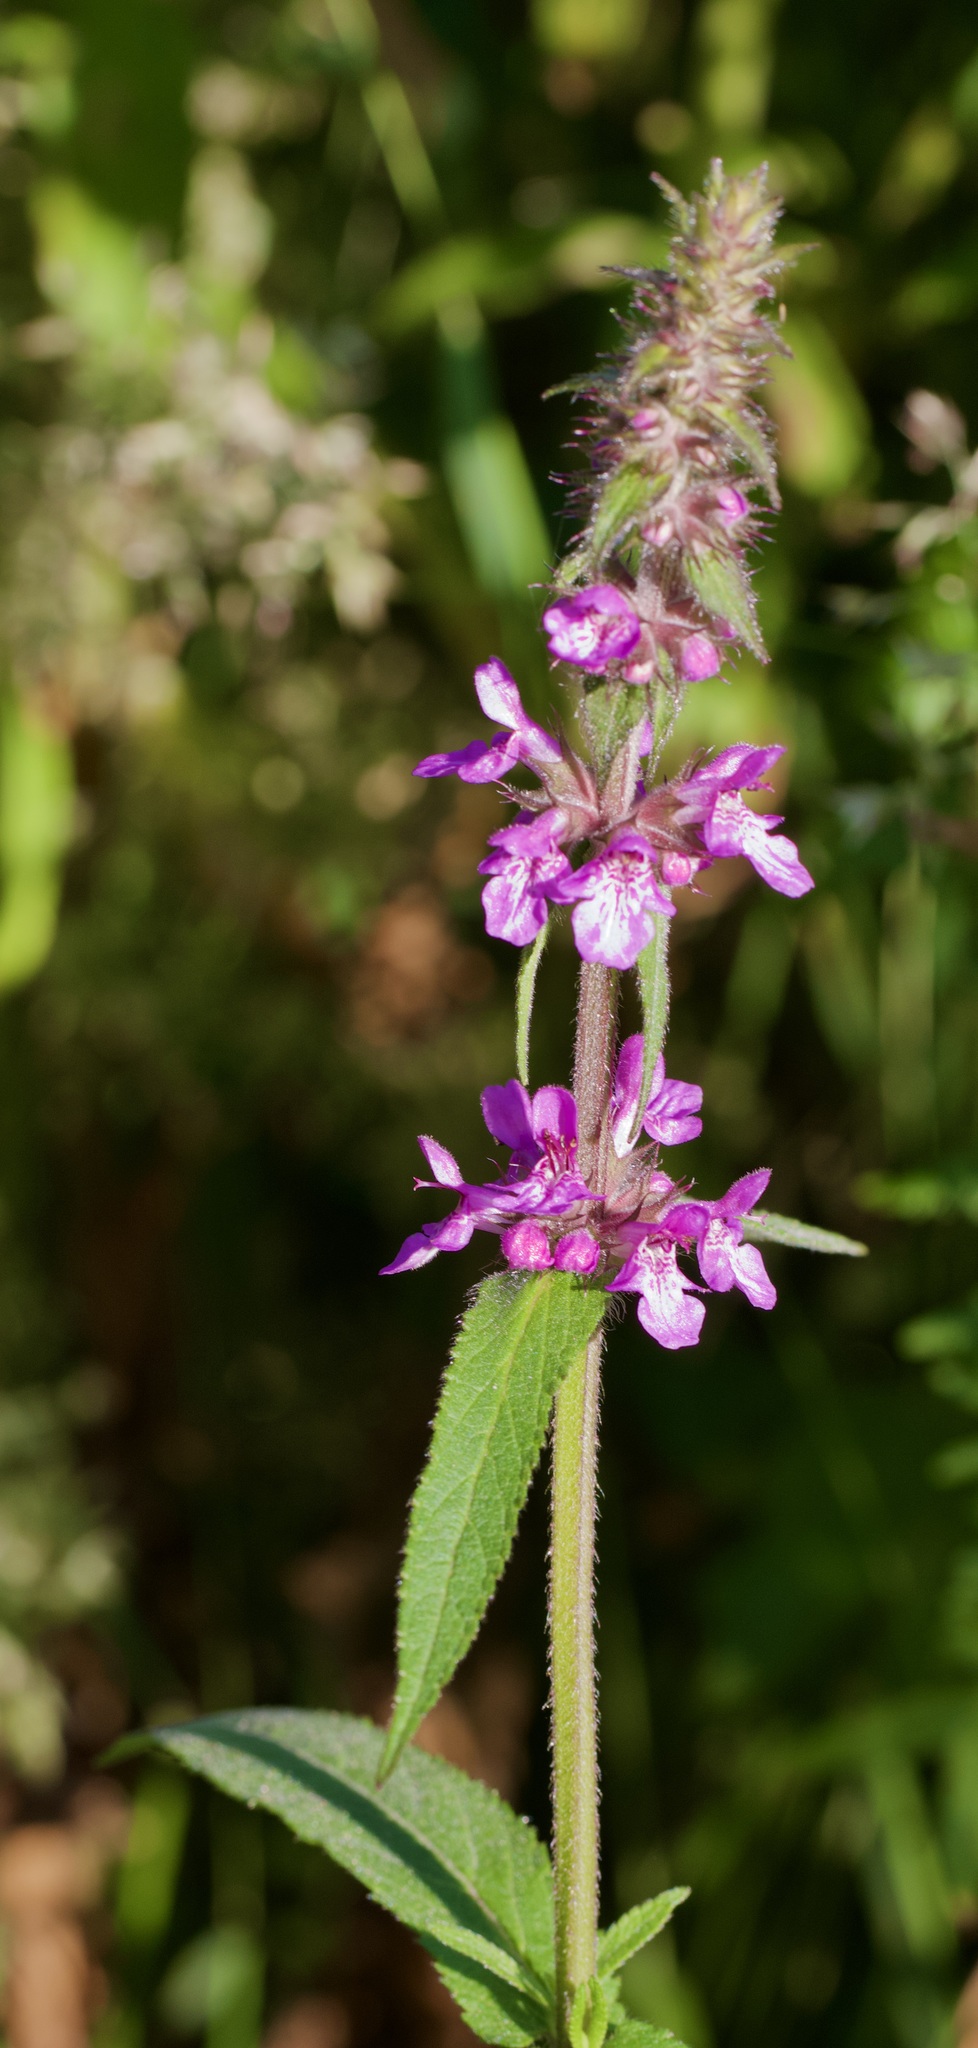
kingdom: Plantae
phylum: Tracheophyta
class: Magnoliopsida
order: Lamiales
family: Lamiaceae
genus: Stachys
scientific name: Stachys palustris
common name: Marsh woundwort
